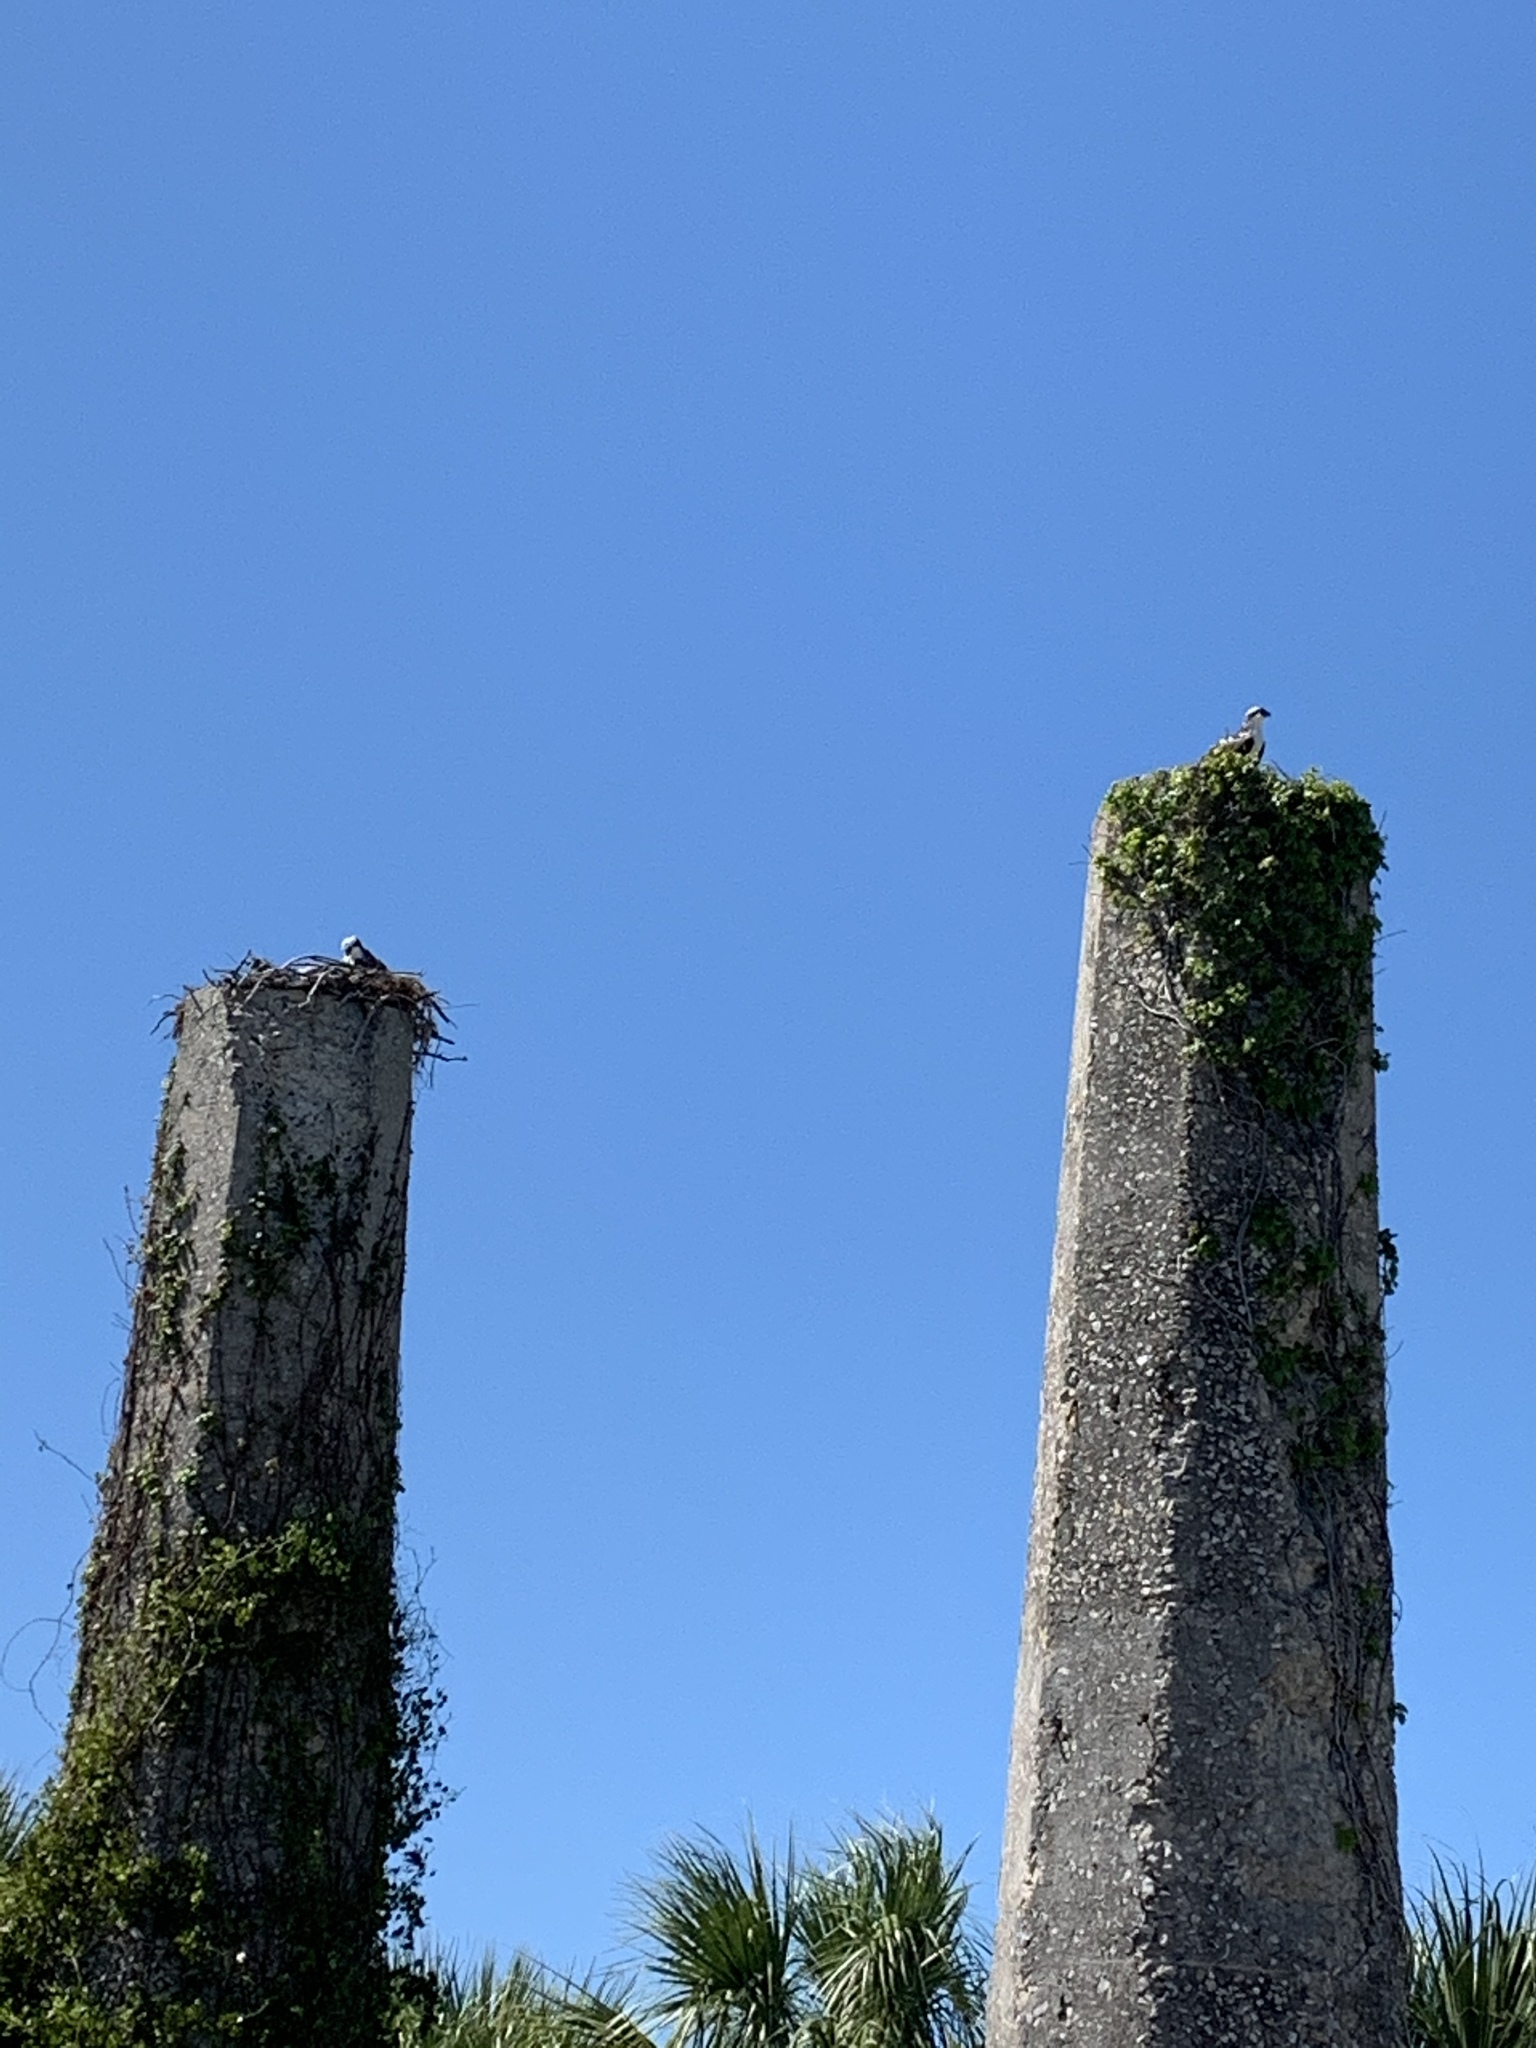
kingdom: Animalia
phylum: Chordata
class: Aves
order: Accipitriformes
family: Pandionidae
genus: Pandion
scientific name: Pandion haliaetus
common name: Osprey
